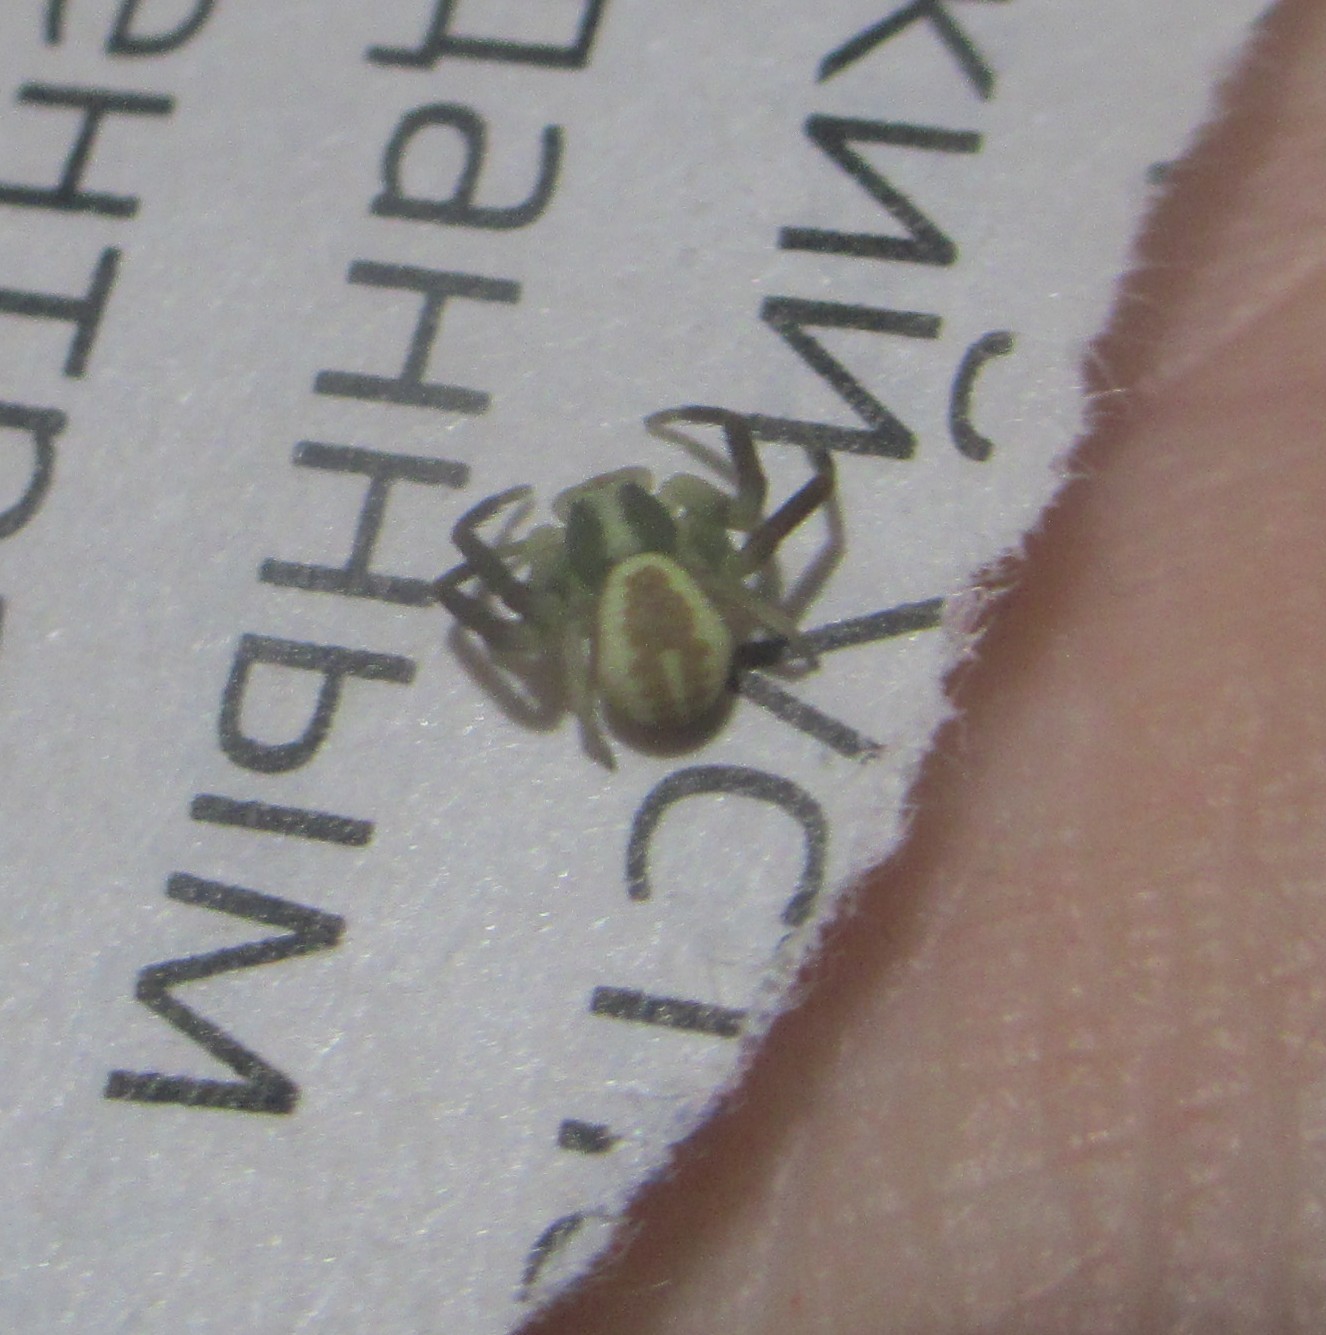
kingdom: Animalia
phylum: Arthropoda
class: Arachnida
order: Araneae
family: Thomisidae
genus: Misumena
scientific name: Misumena vatia
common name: Goldenrod crab spider
